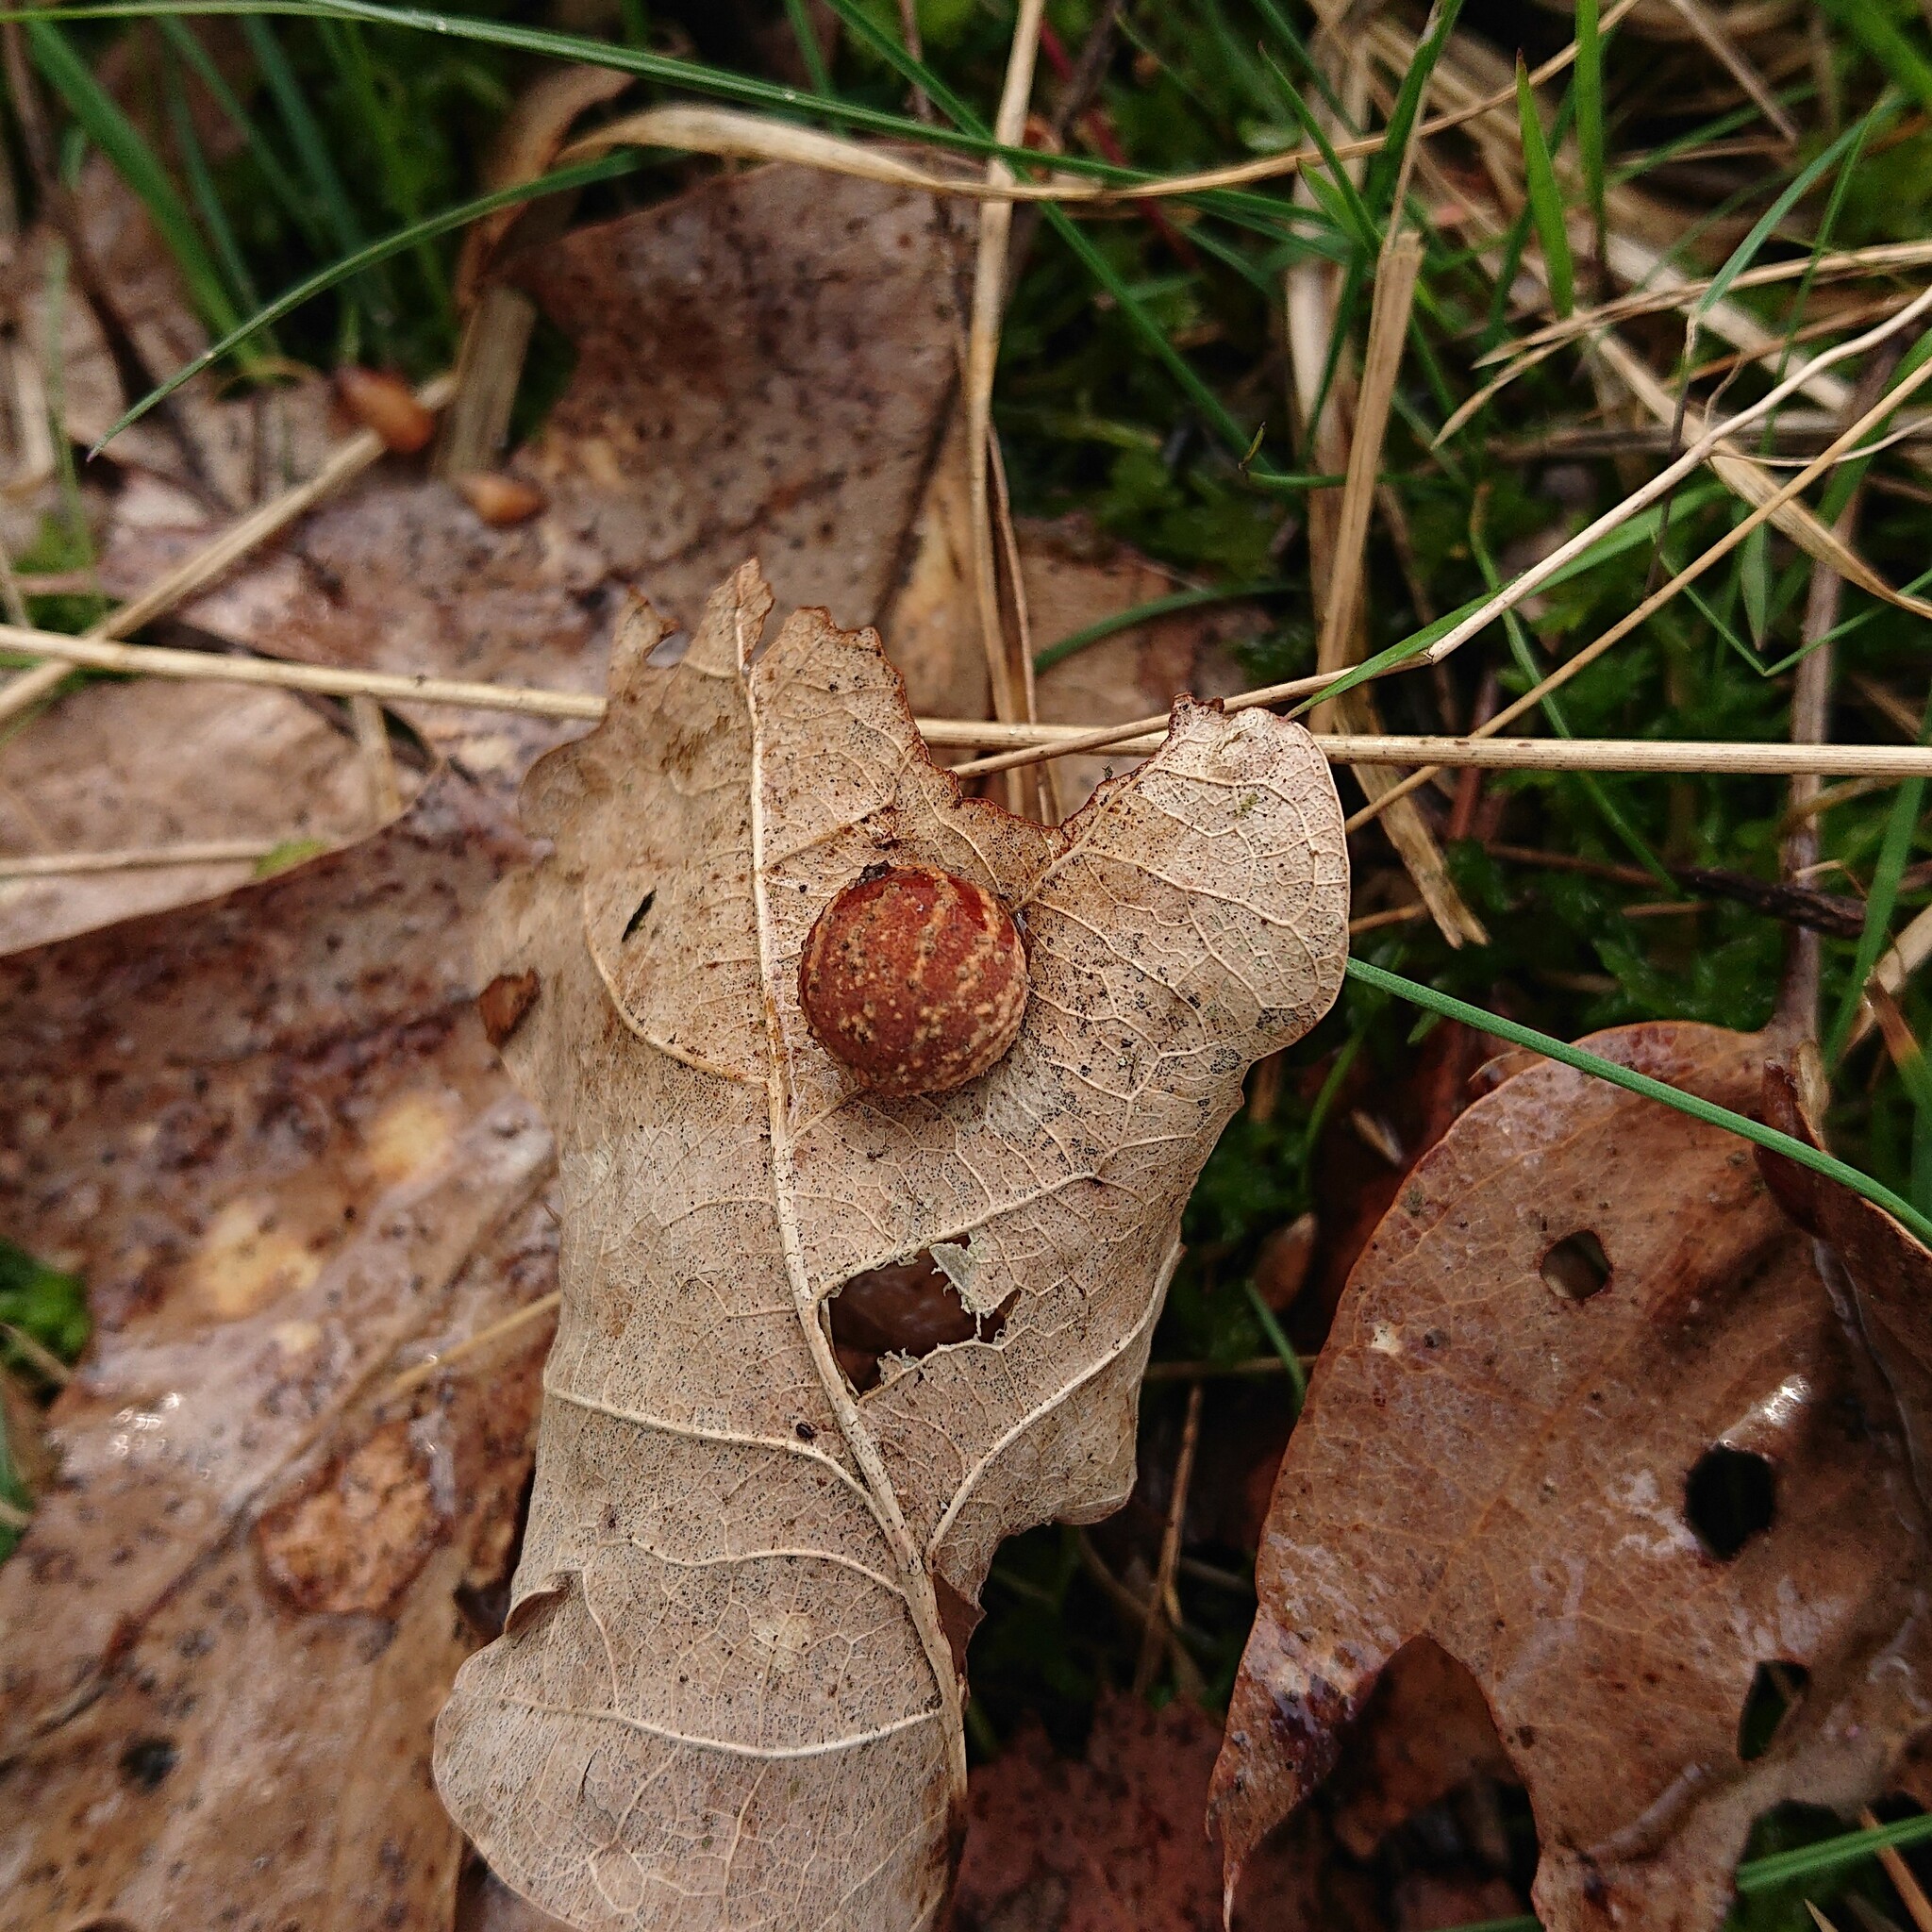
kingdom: Animalia
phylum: Arthropoda
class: Insecta
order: Hymenoptera
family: Cynipidae
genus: Cynips
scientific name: Cynips longiventris
